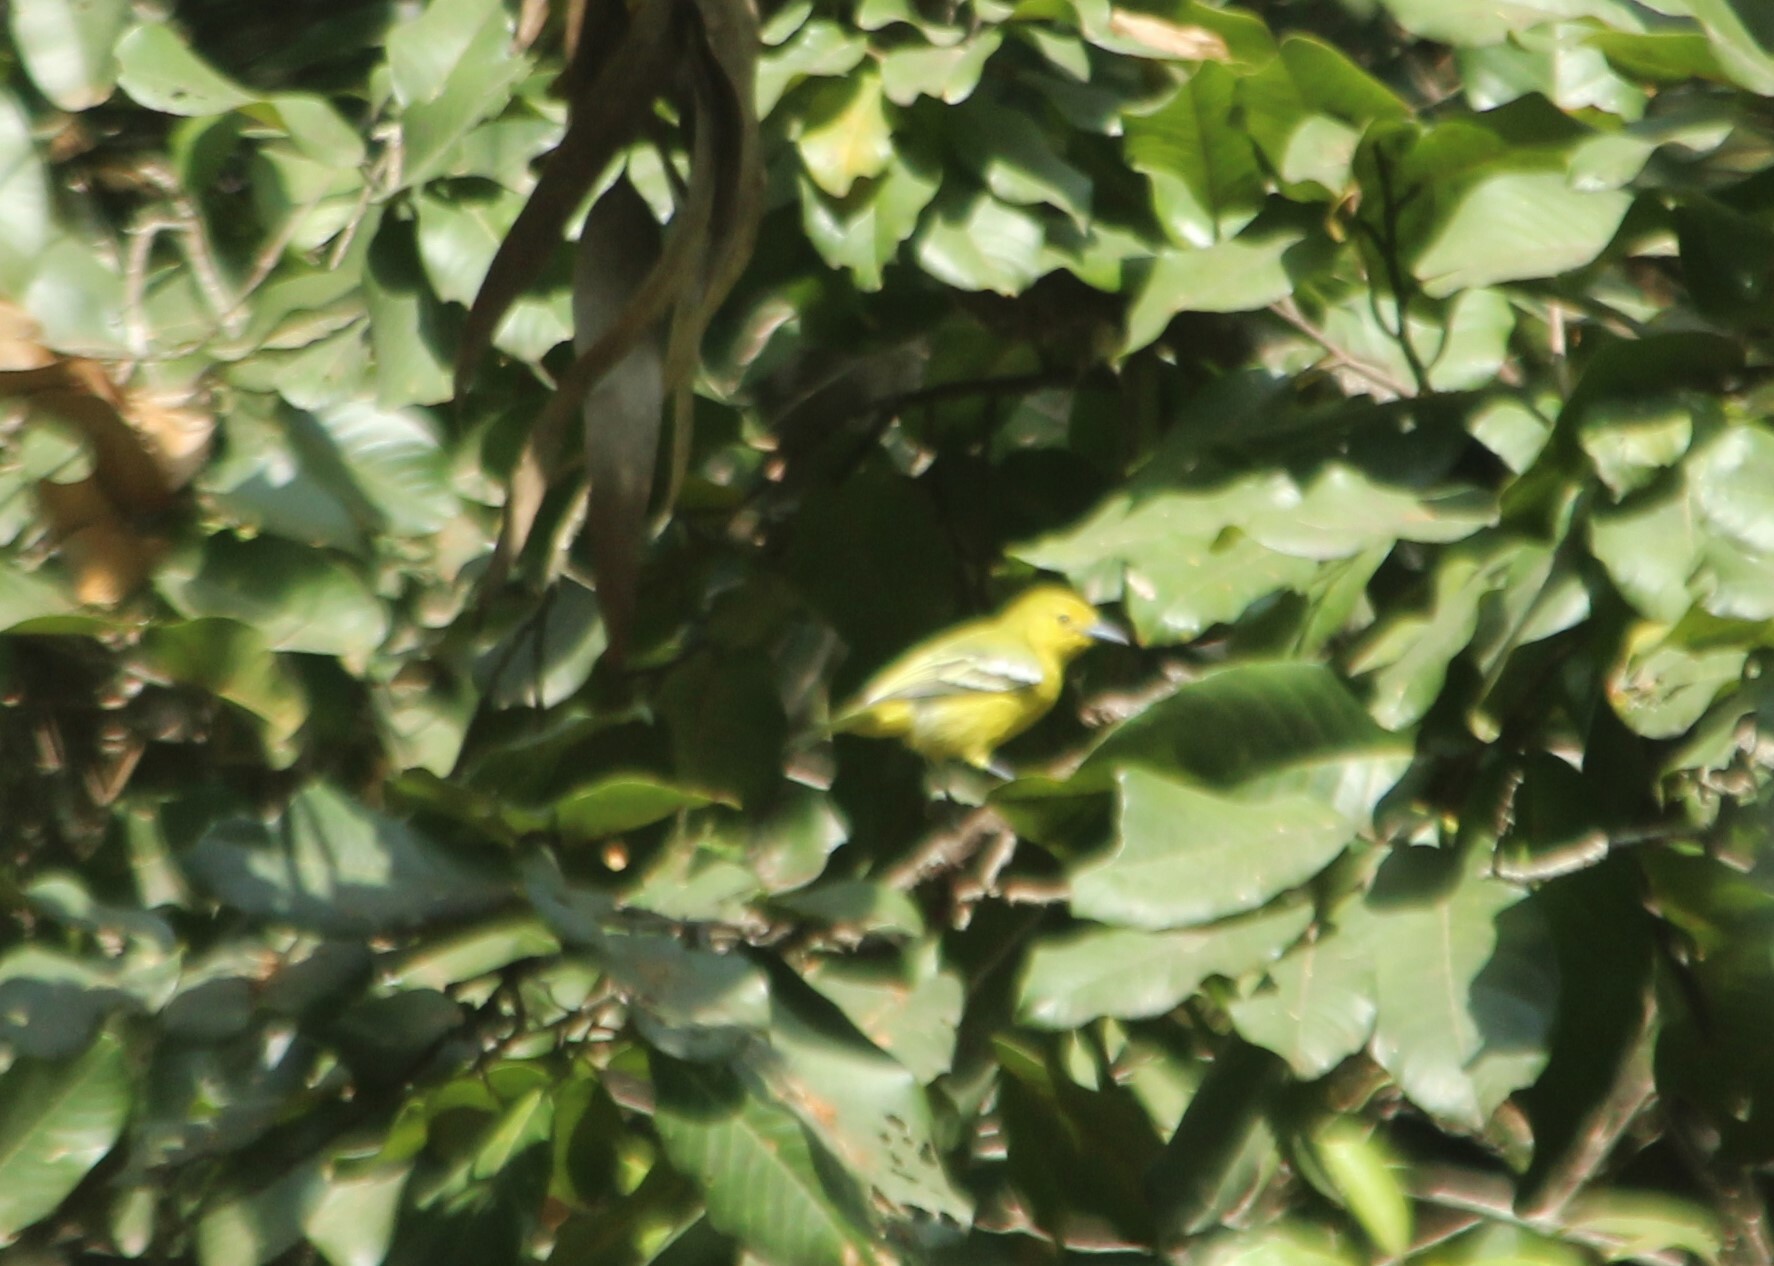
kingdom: Animalia
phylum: Chordata
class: Aves
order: Passeriformes
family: Aegithinidae
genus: Aegithina
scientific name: Aegithina tiphia
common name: Common iora
